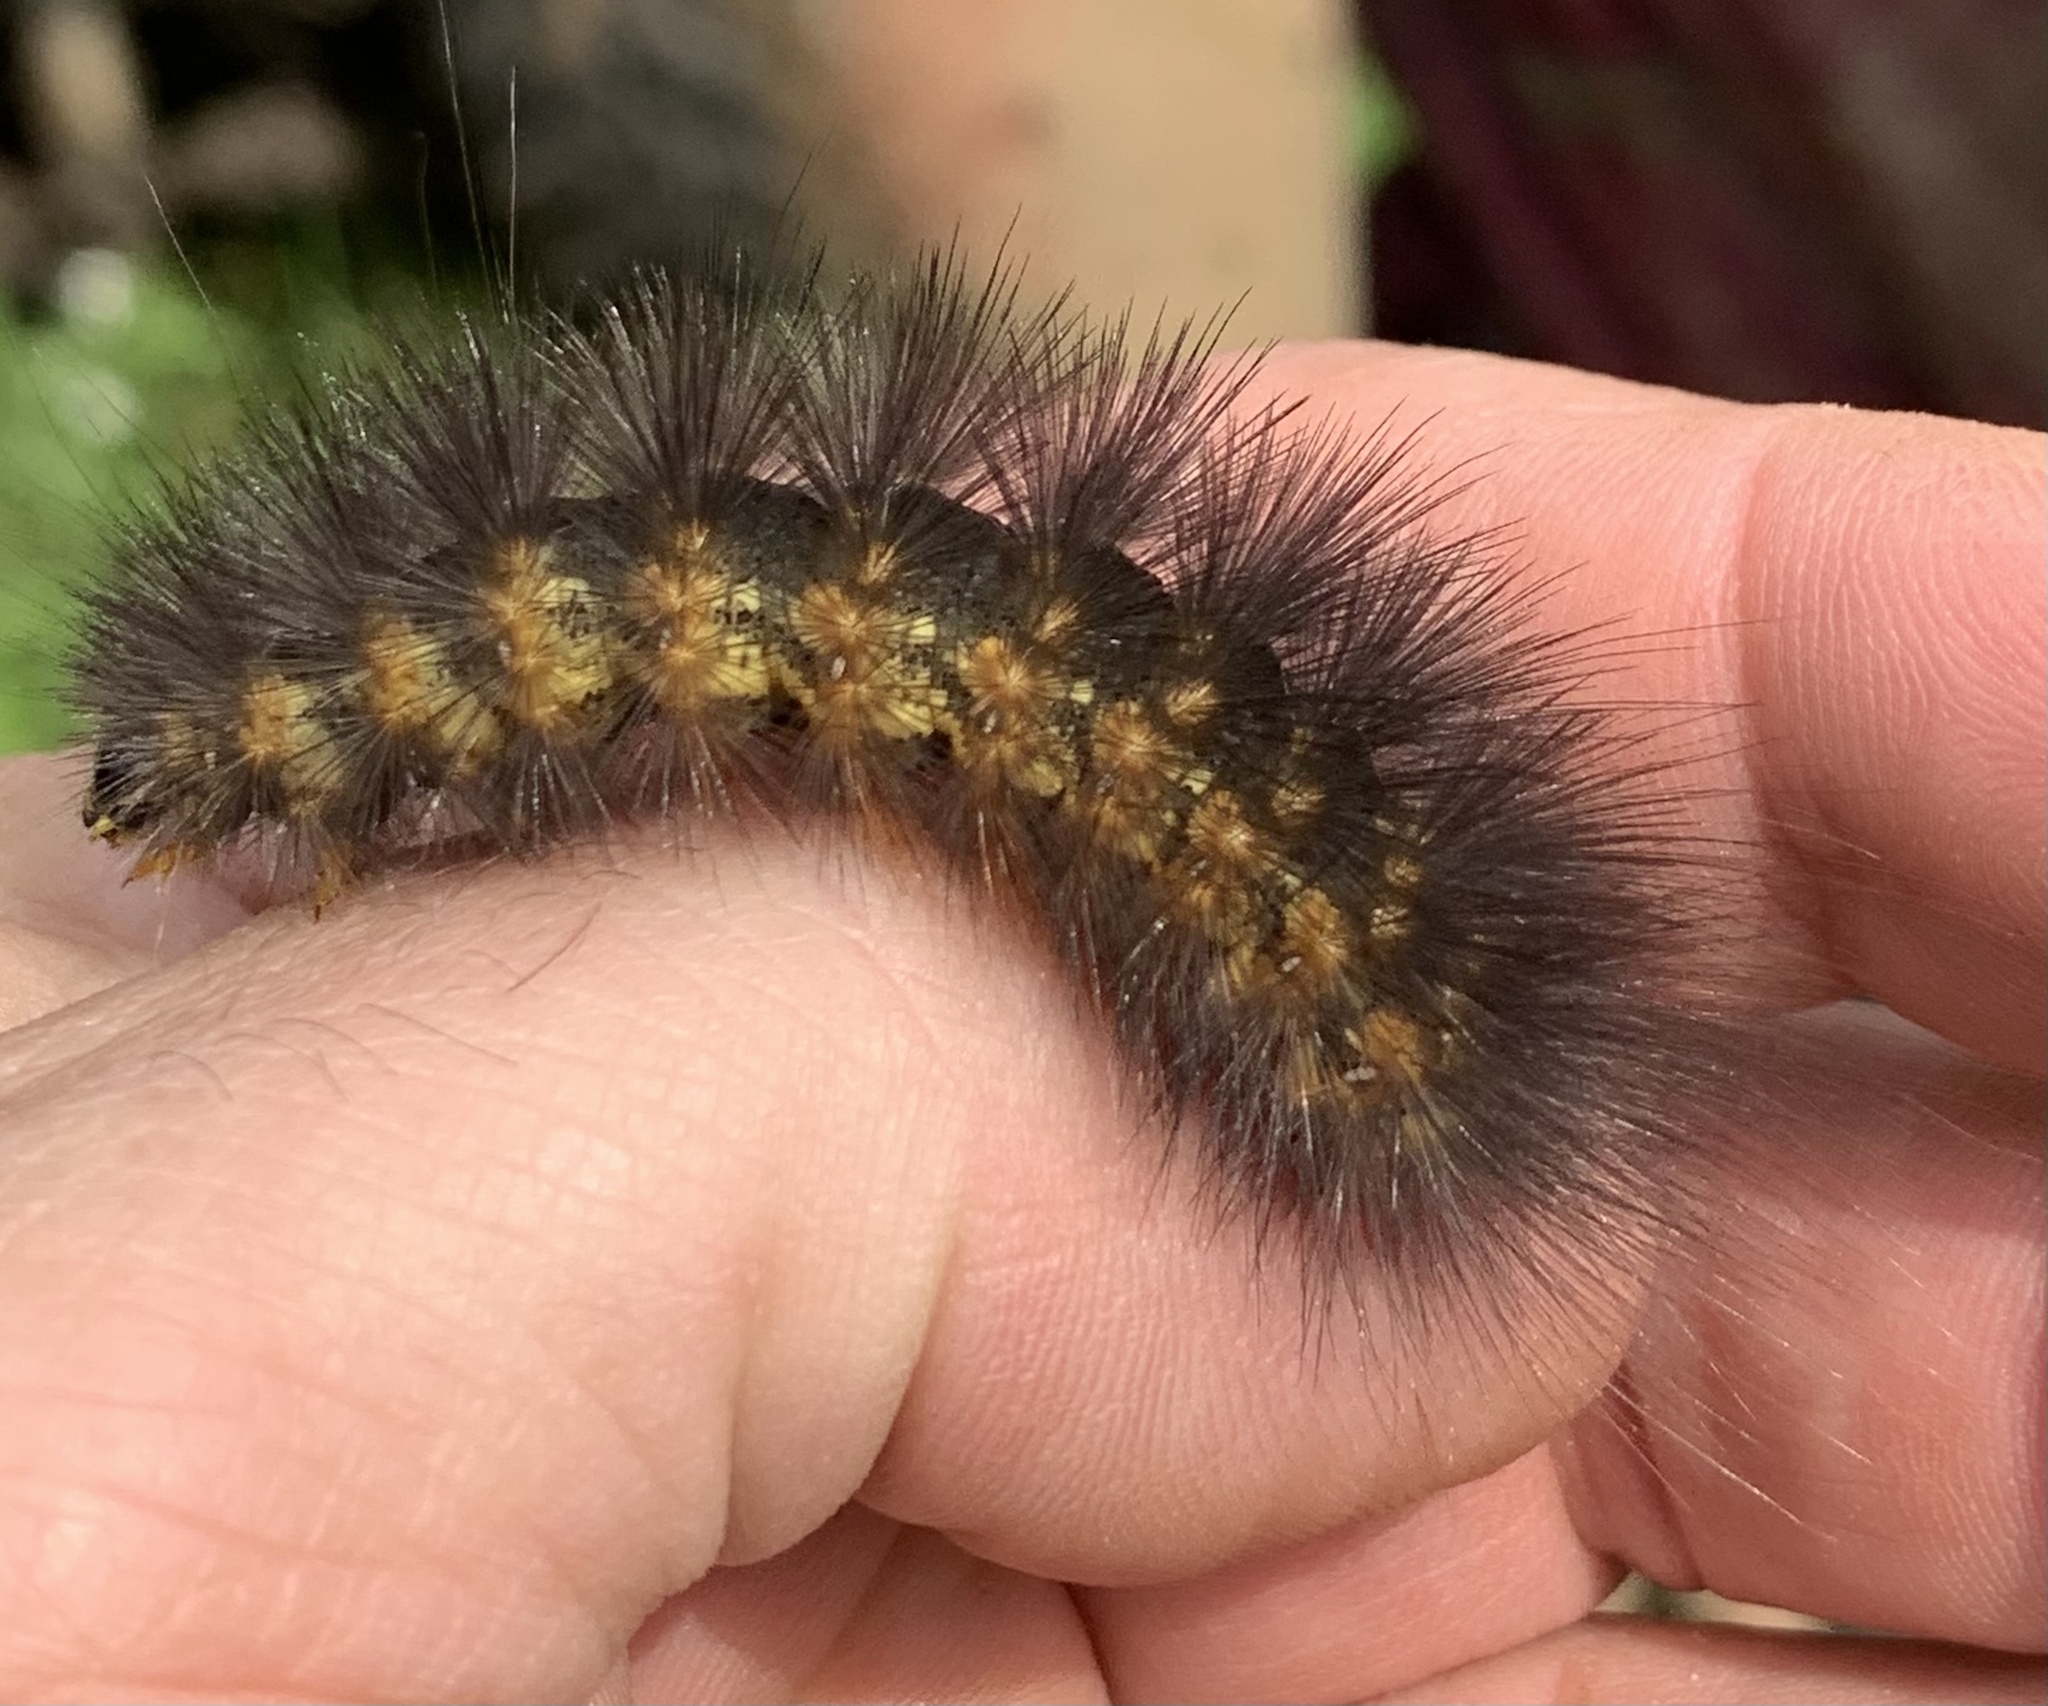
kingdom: Animalia
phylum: Arthropoda
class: Insecta
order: Lepidoptera
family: Erebidae
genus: Estigmene
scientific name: Estigmene acrea
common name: Salt marsh moth
